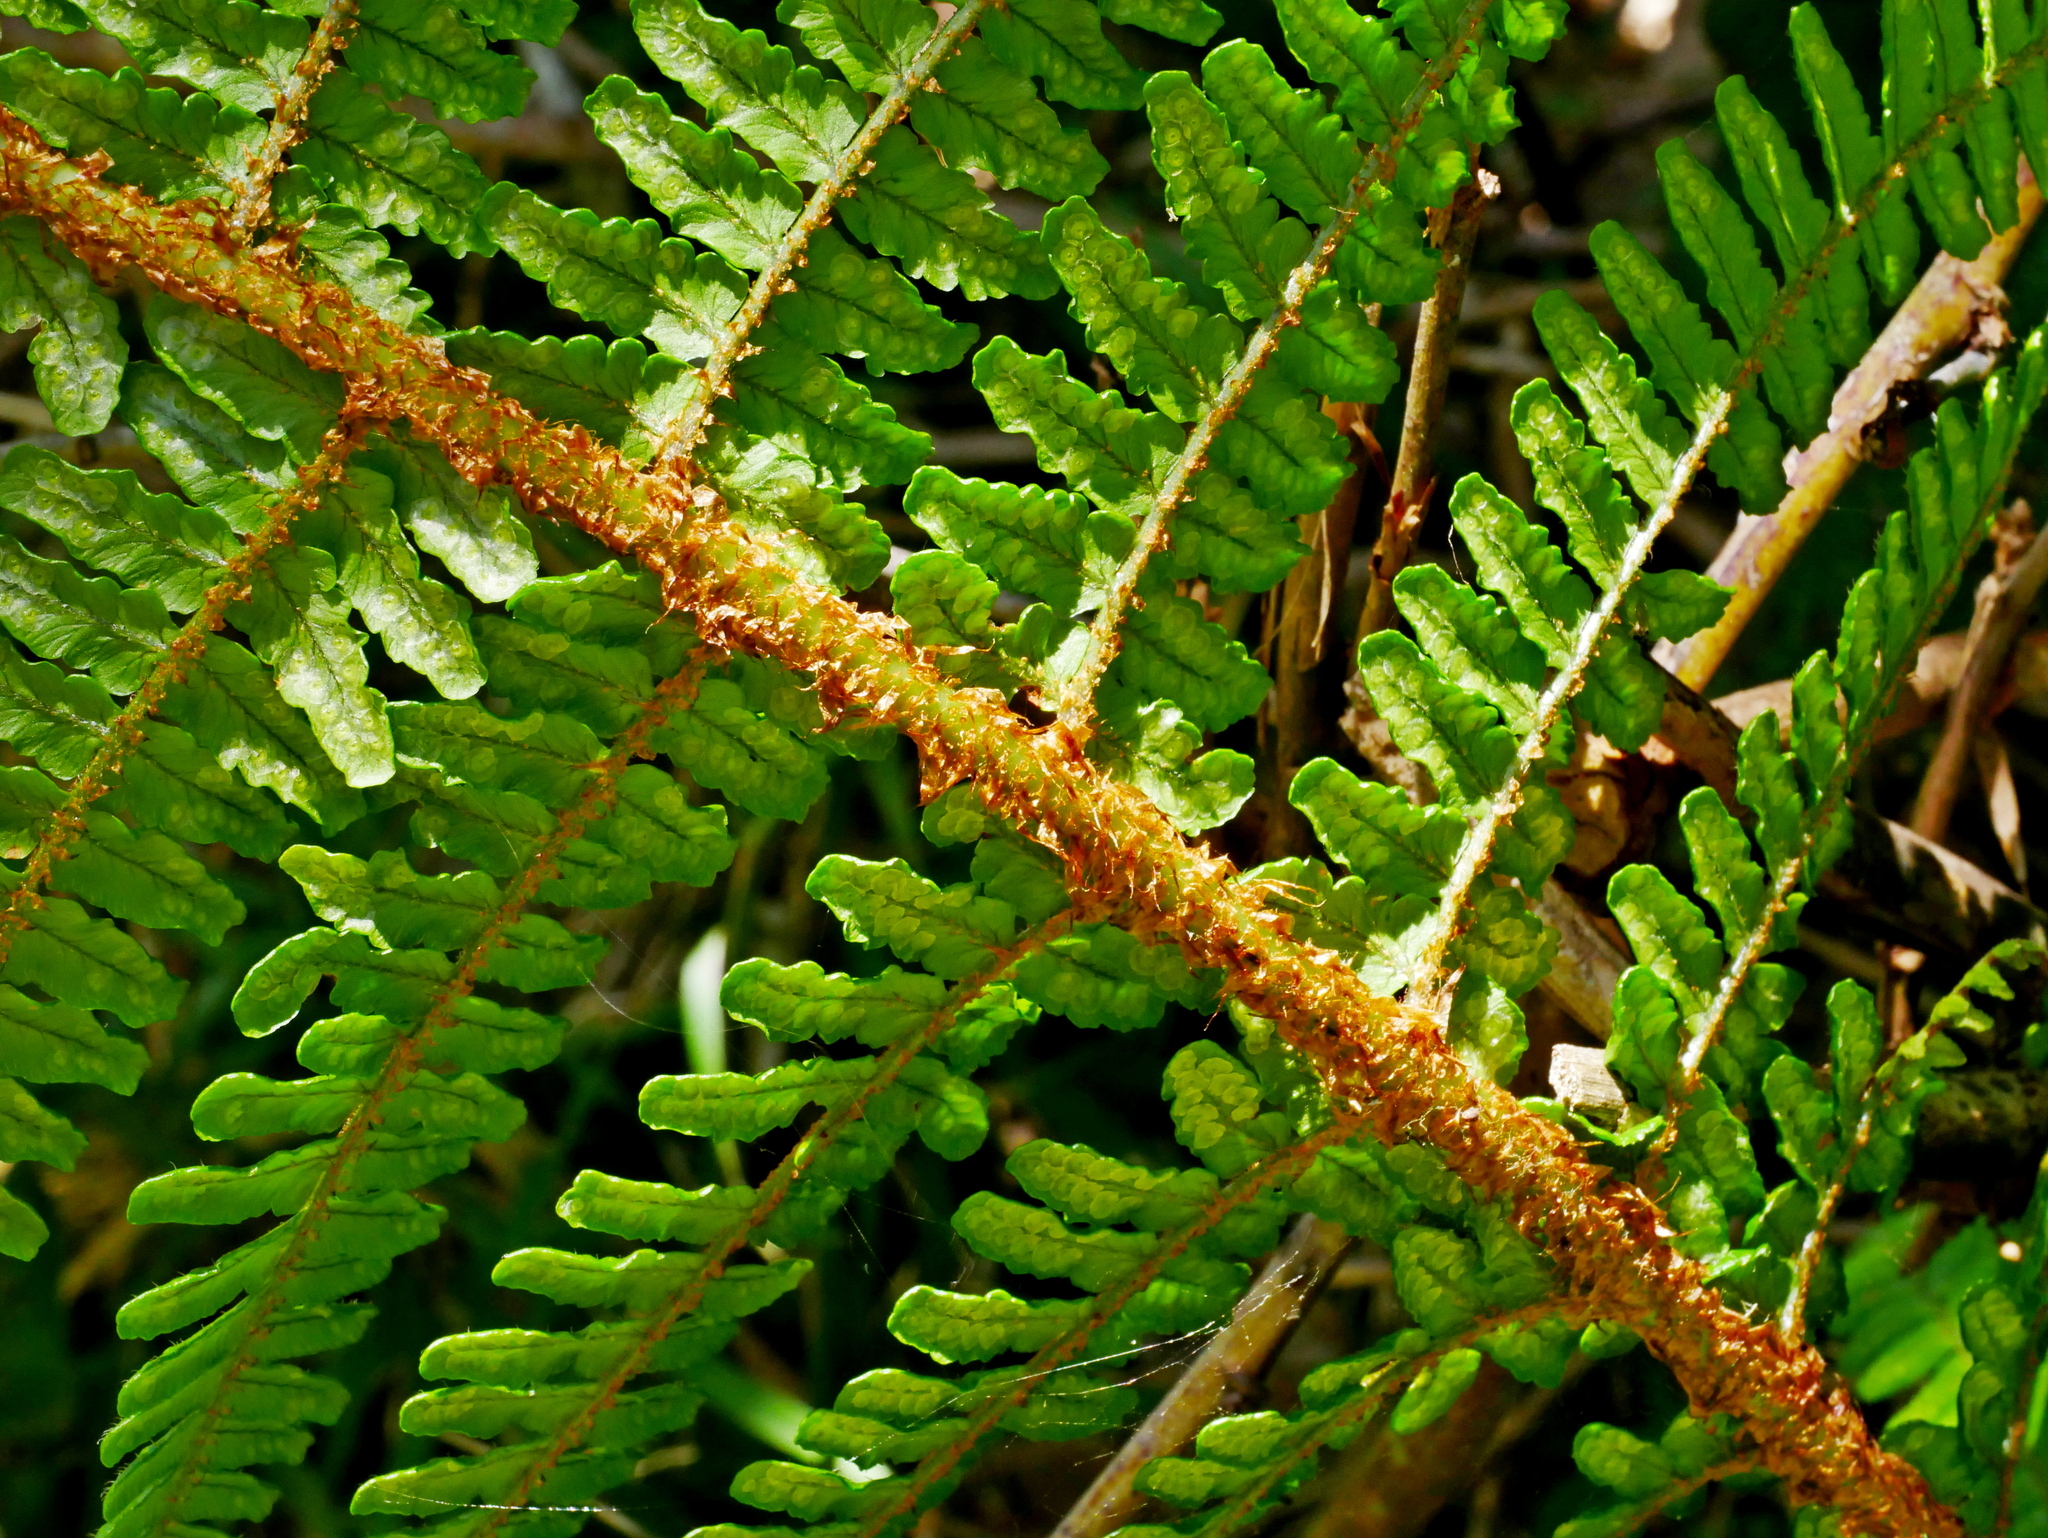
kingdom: Plantae
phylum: Tracheophyta
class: Polypodiopsida
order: Polypodiales
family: Dryopteridaceae
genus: Dryopteris
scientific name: Dryopteris holttumii
